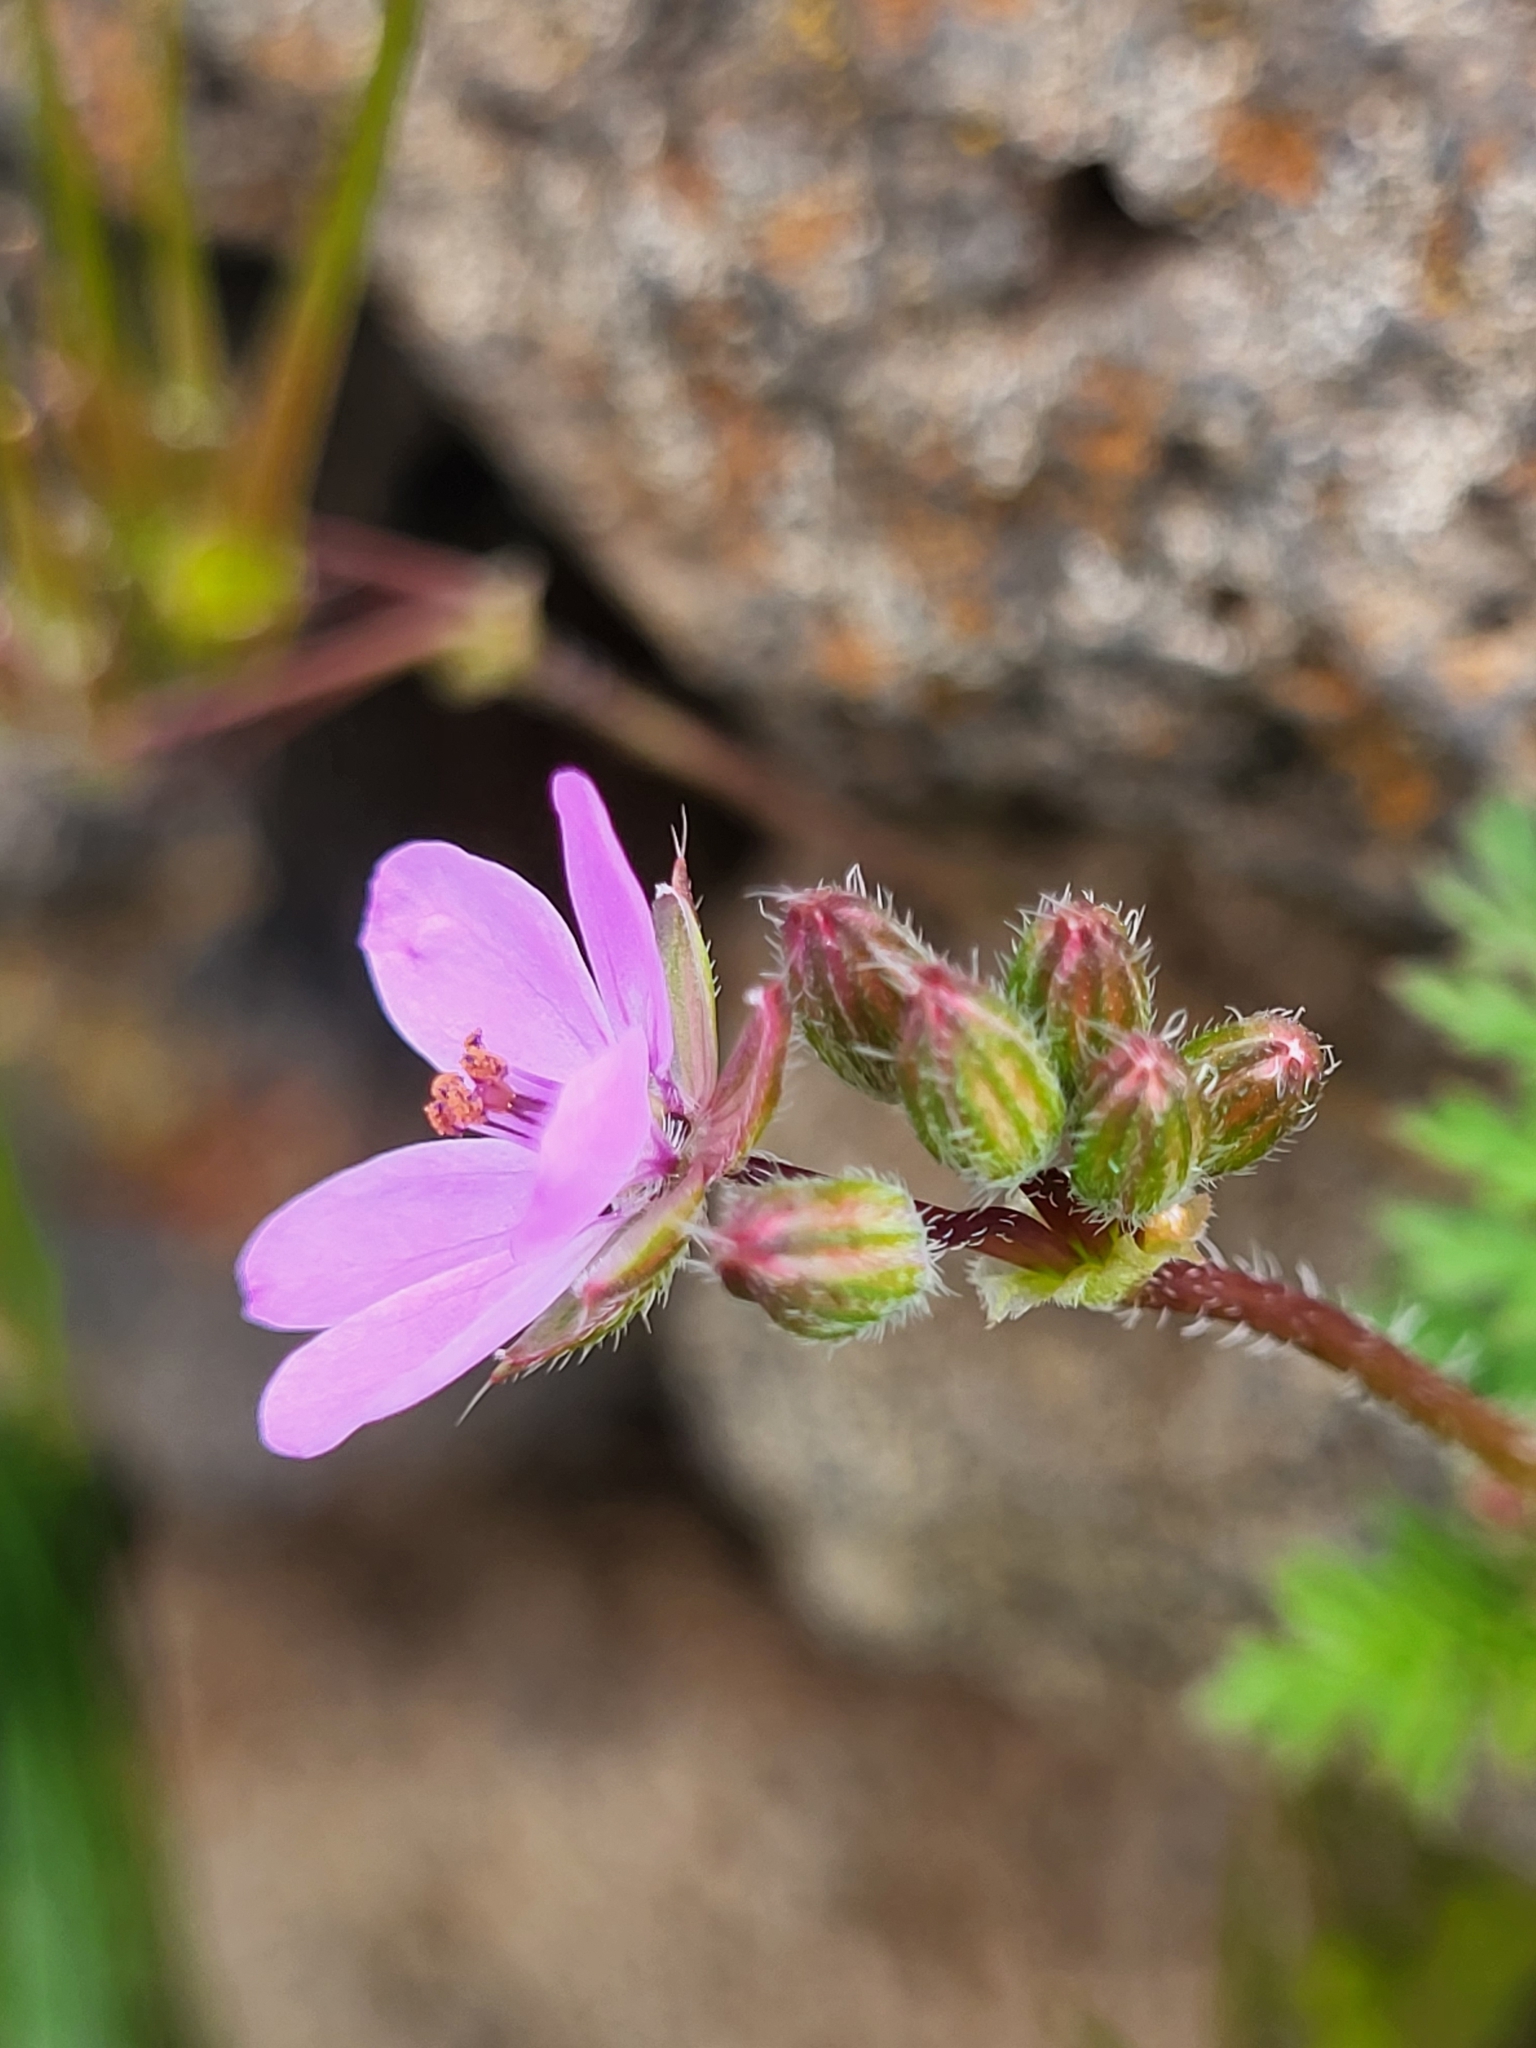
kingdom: Plantae
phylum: Tracheophyta
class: Magnoliopsida
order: Geraniales
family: Geraniaceae
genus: Erodium
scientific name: Erodium cicutarium
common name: Common stork's-bill
